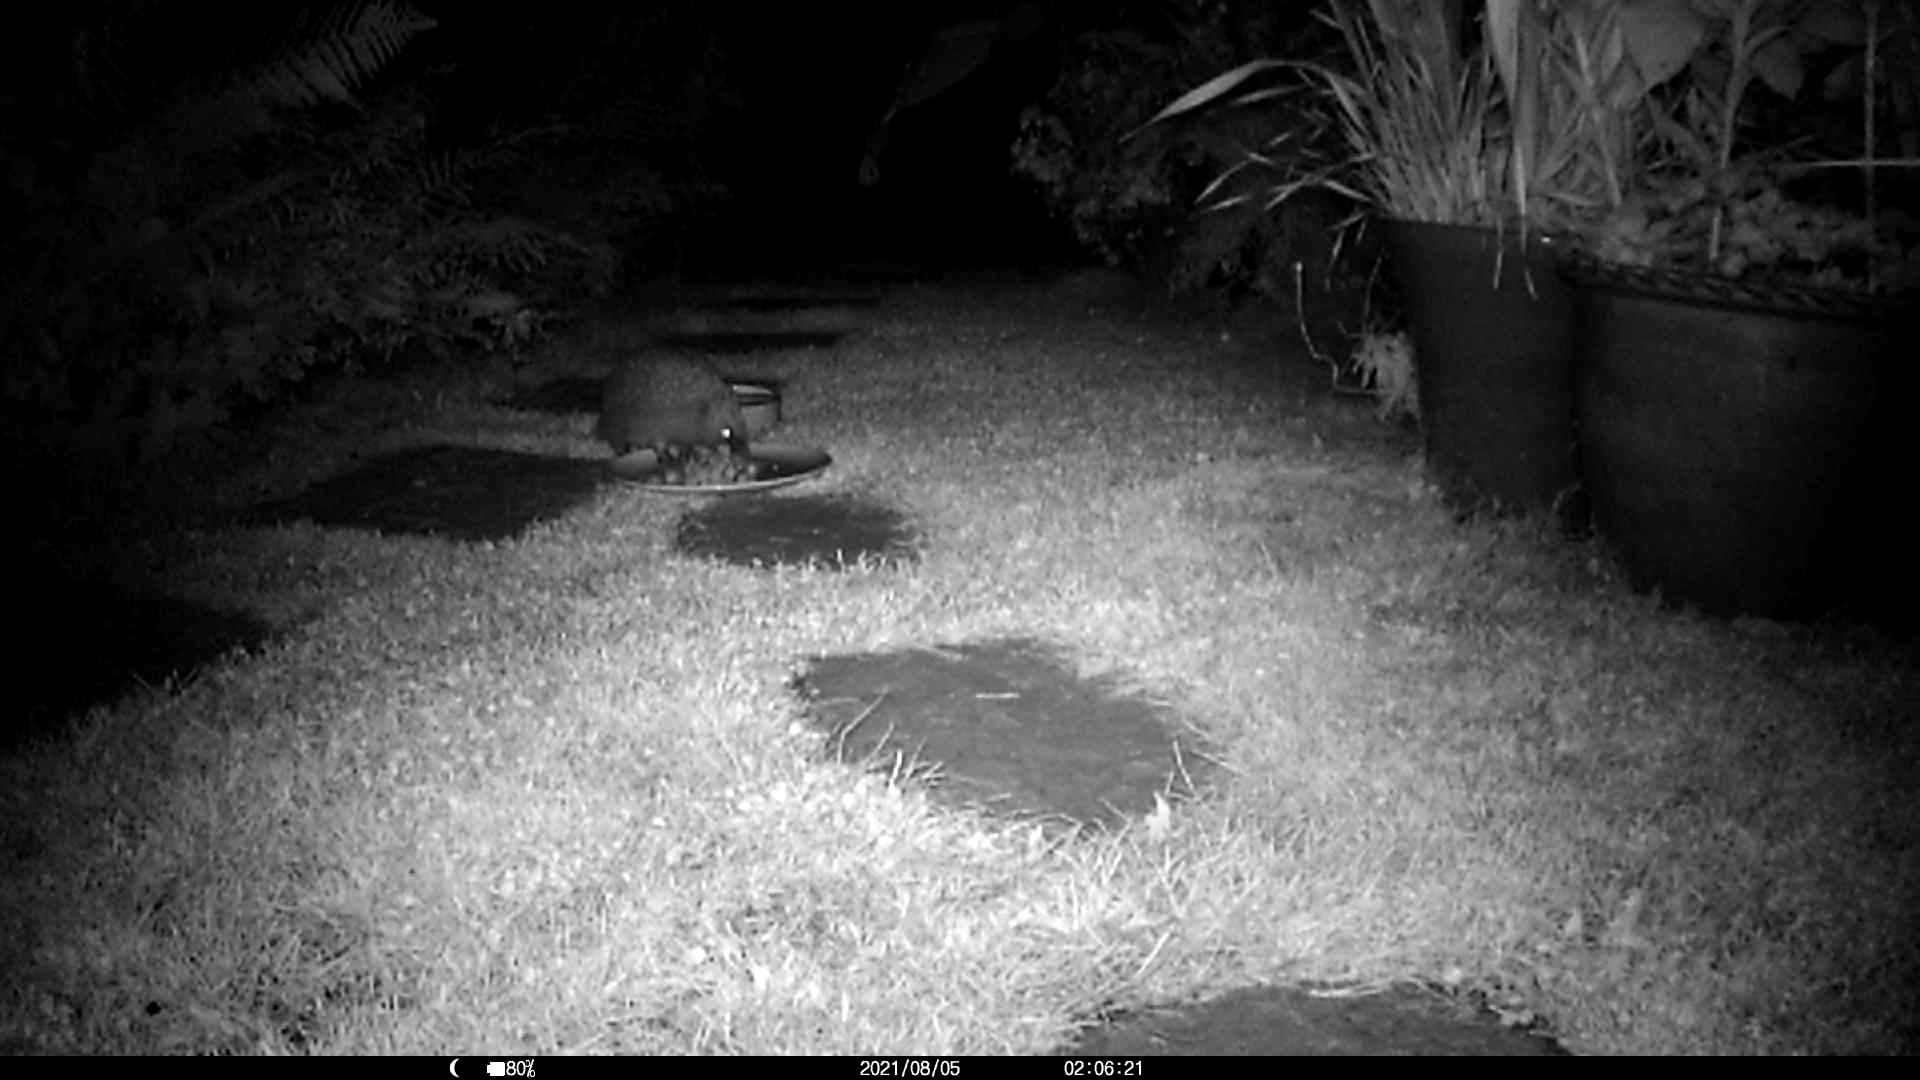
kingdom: Animalia
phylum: Chordata
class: Mammalia
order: Erinaceomorpha
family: Erinaceidae
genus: Erinaceus
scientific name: Erinaceus europaeus
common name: West european hedgehog
